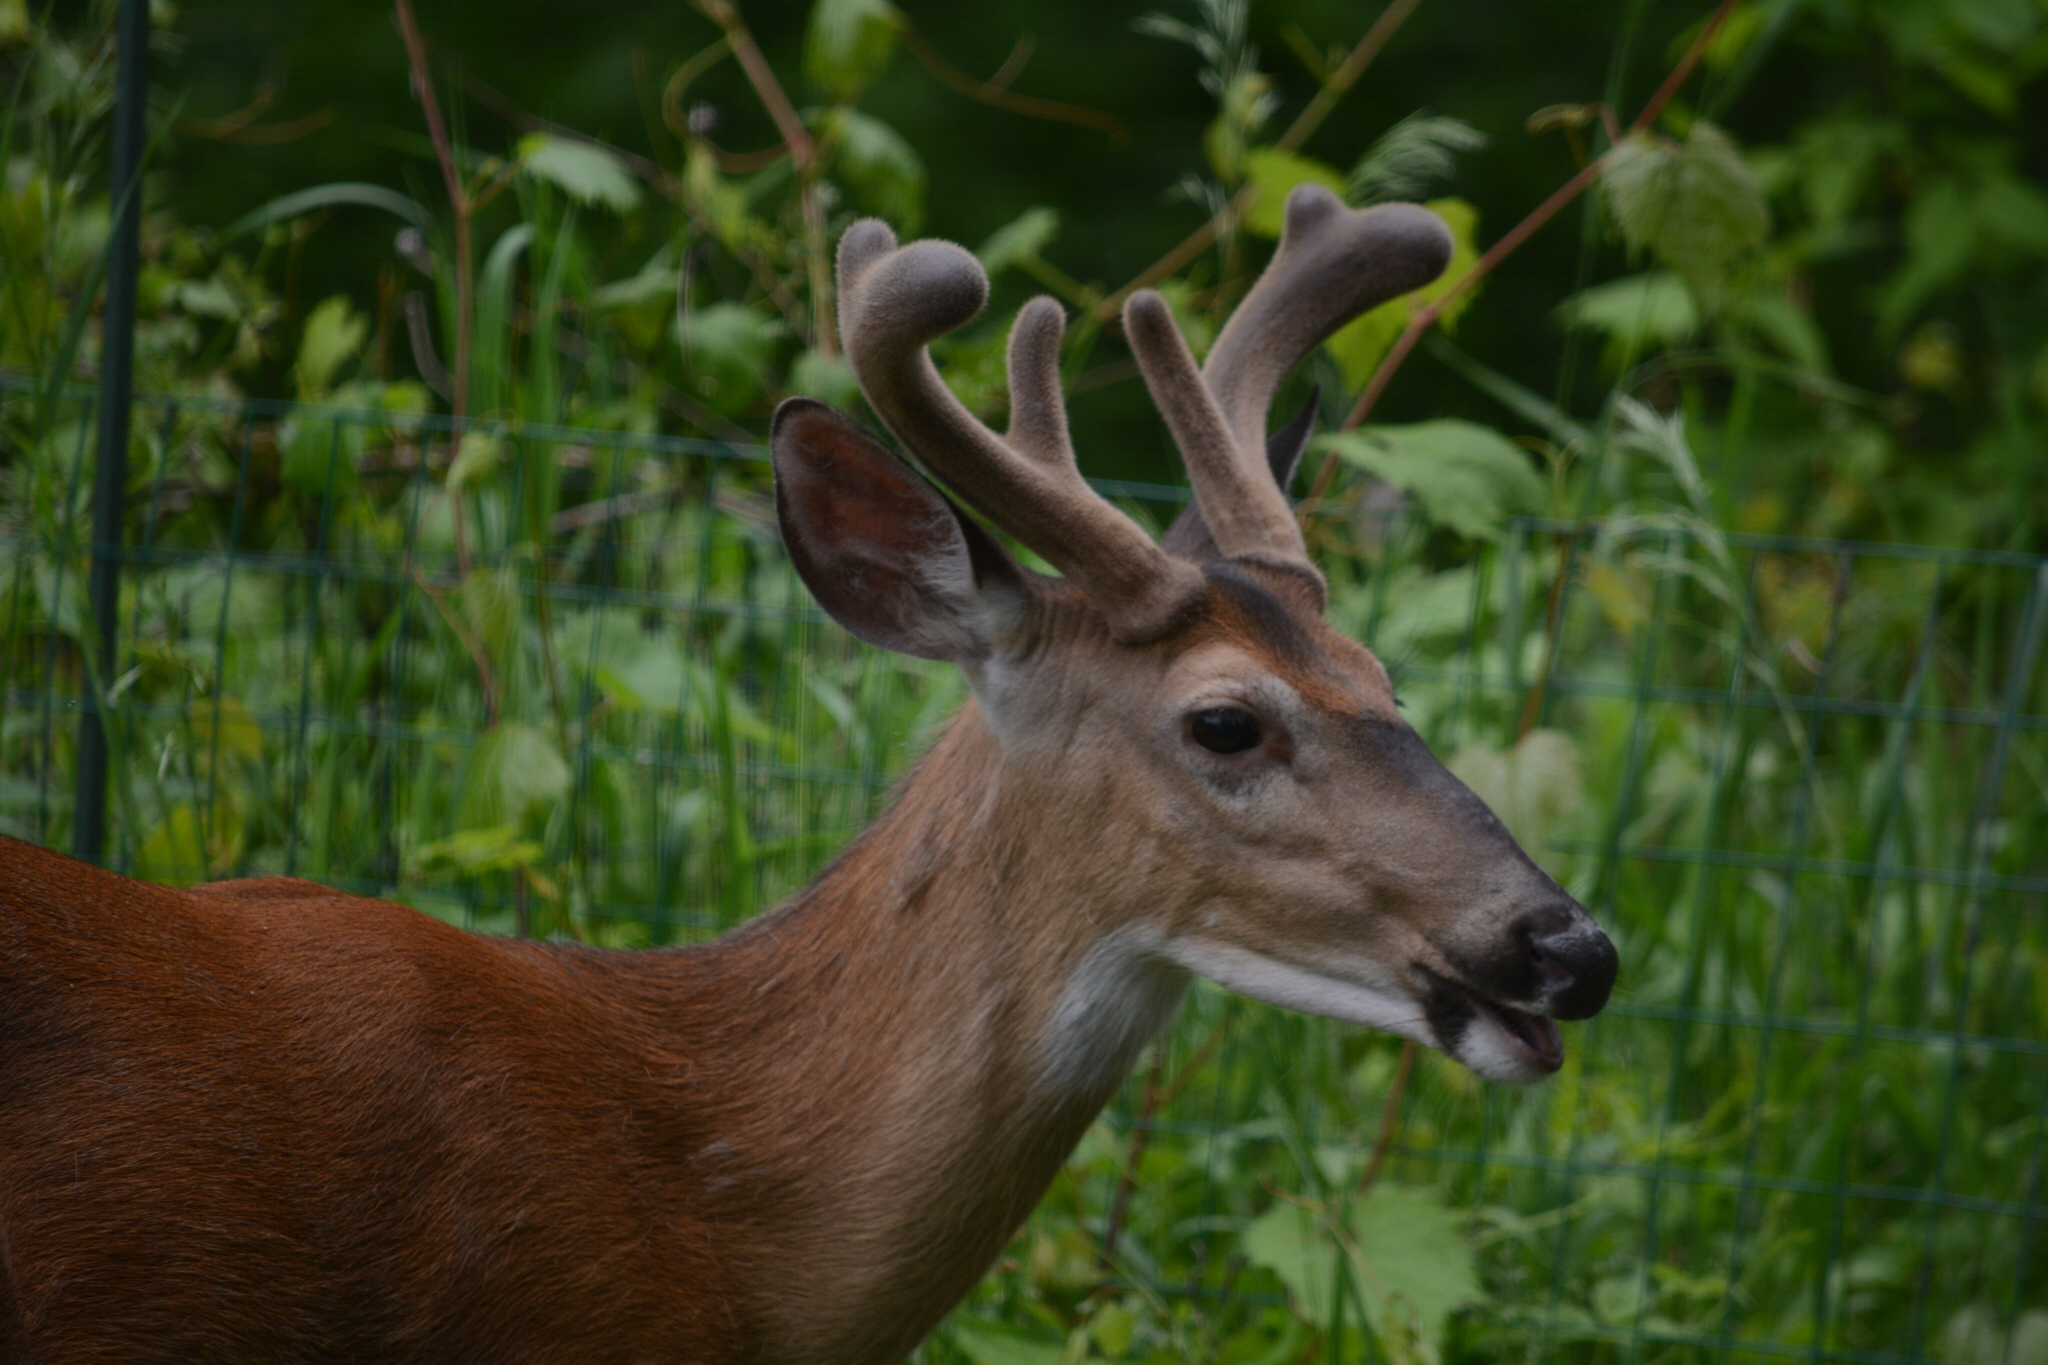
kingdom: Animalia
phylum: Chordata
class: Mammalia
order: Artiodactyla
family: Cervidae
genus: Odocoileus
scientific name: Odocoileus virginianus
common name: White-tailed deer
